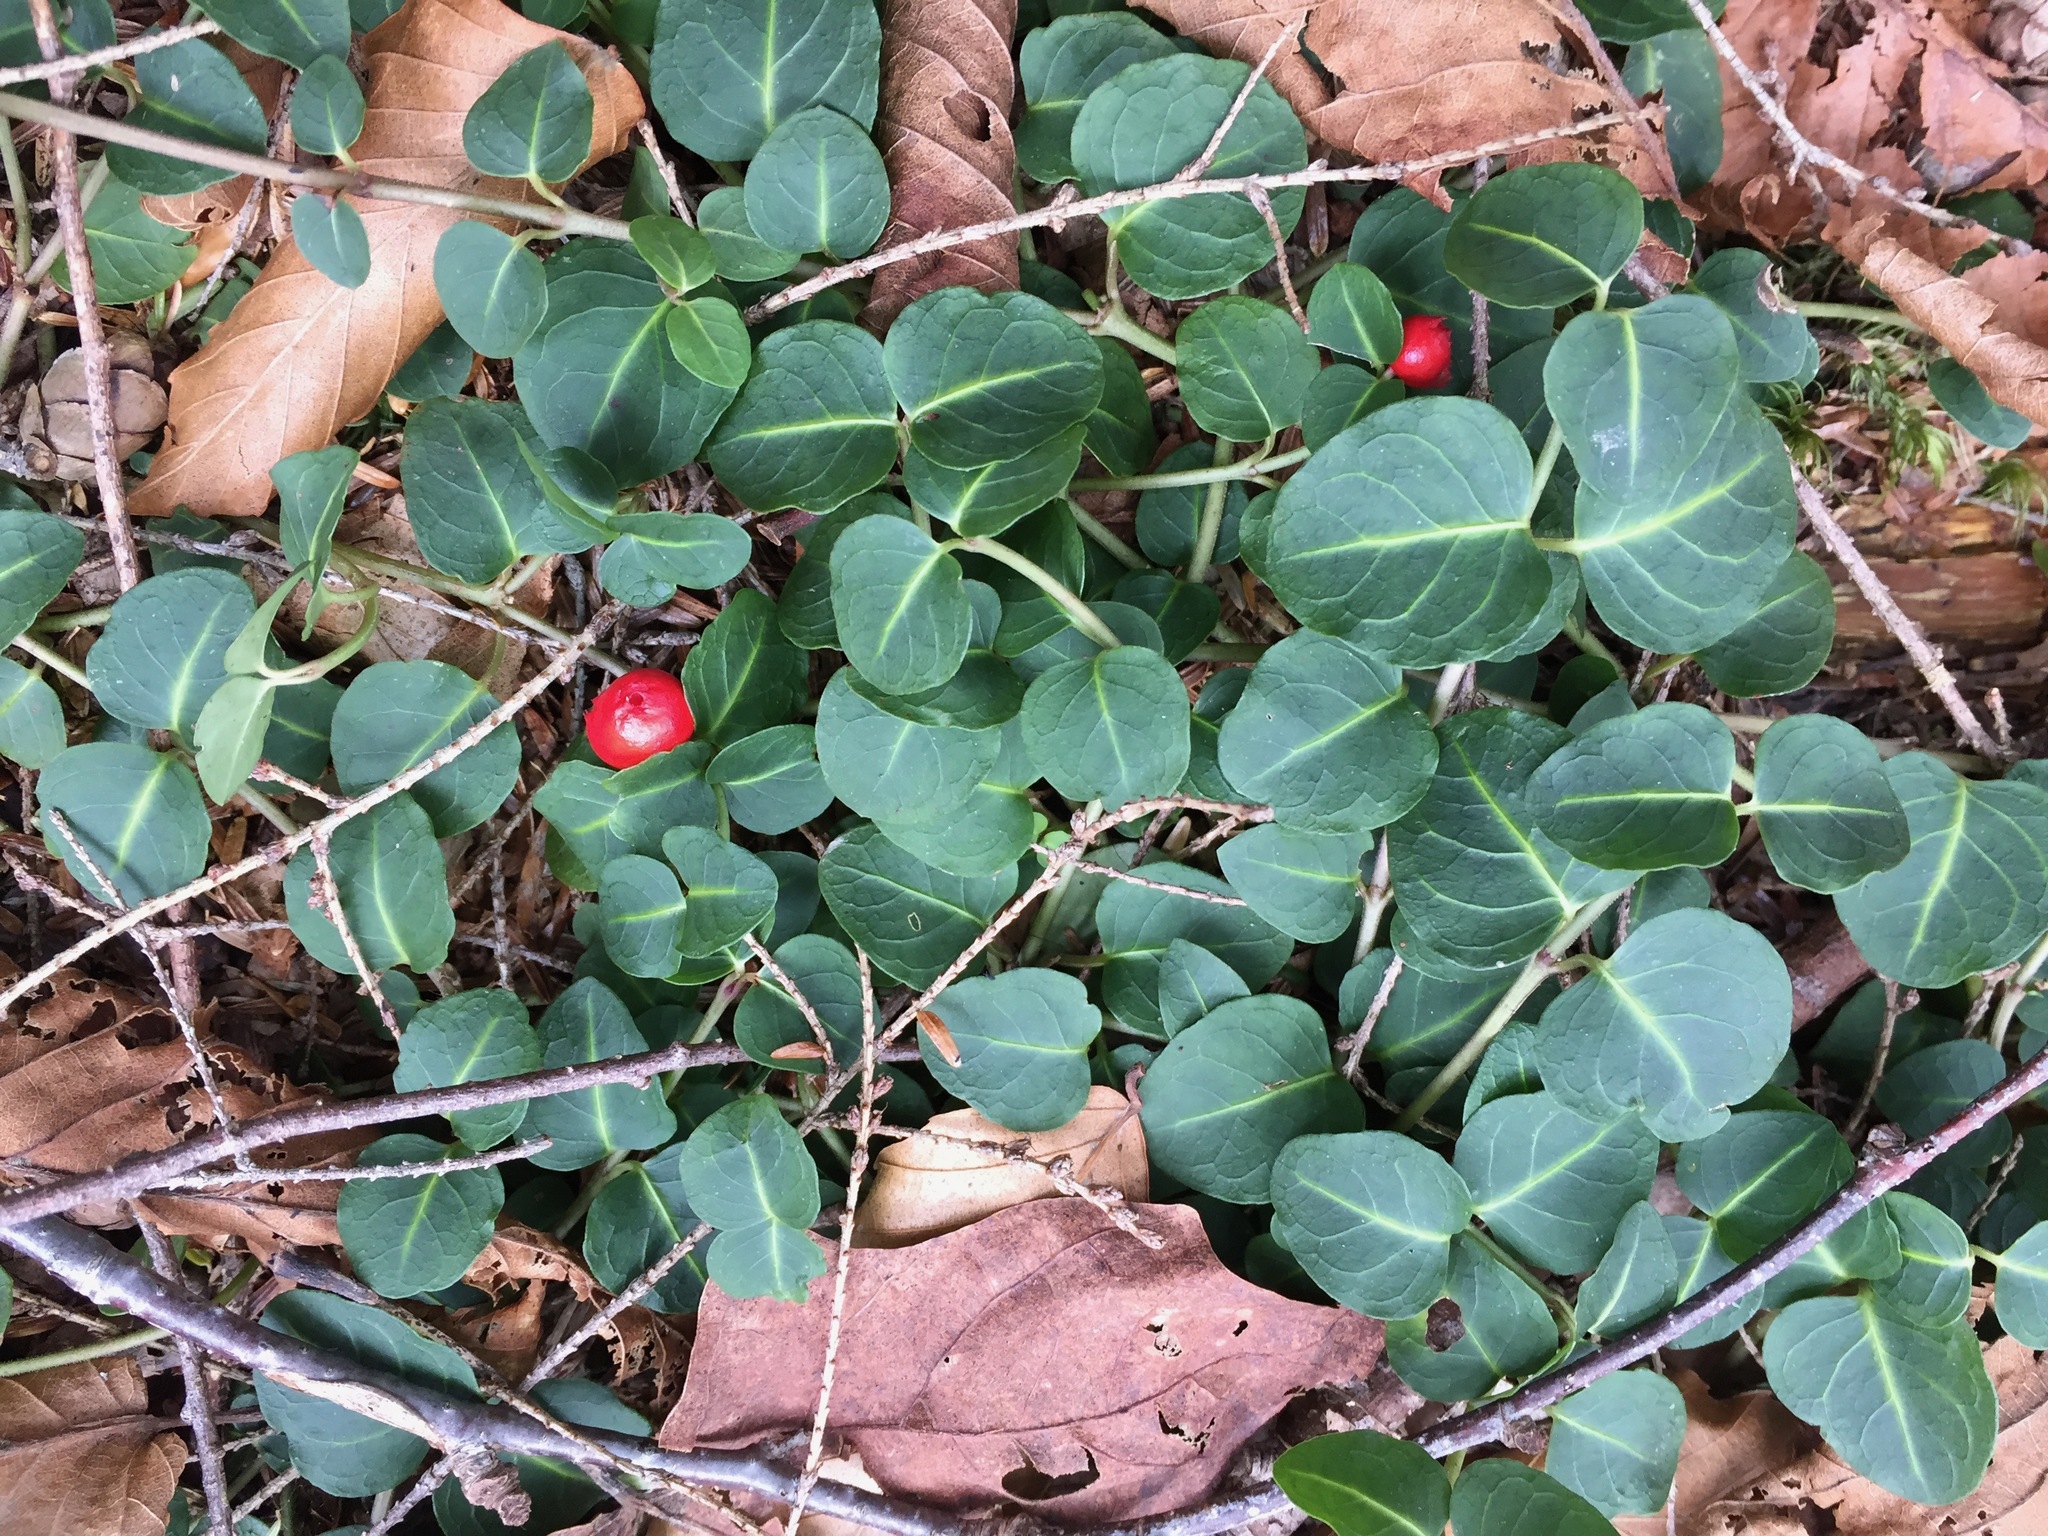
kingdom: Plantae
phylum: Tracheophyta
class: Magnoliopsida
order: Gentianales
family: Rubiaceae
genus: Mitchella
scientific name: Mitchella repens
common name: Partridge-berry
